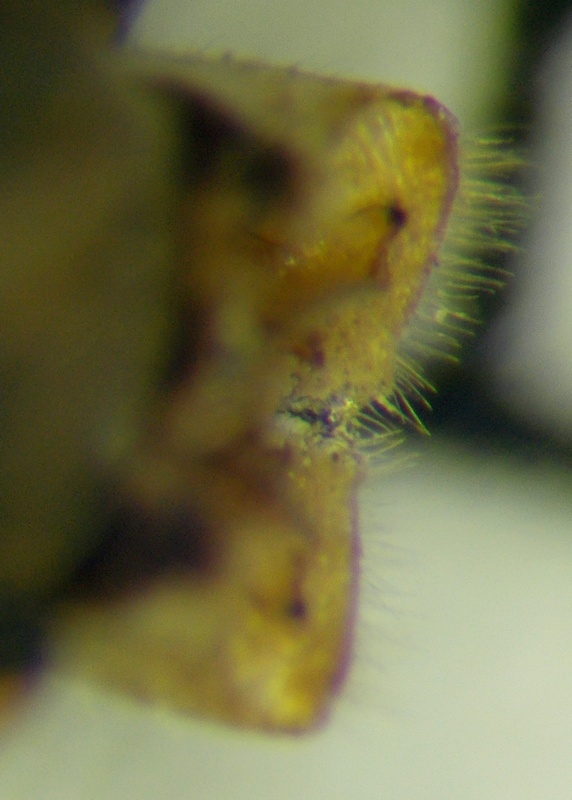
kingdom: Animalia
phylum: Arthropoda
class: Insecta
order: Hemiptera
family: Pentatomidae
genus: Aelia
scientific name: Aelia acuminata
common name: Bishop's mitre
